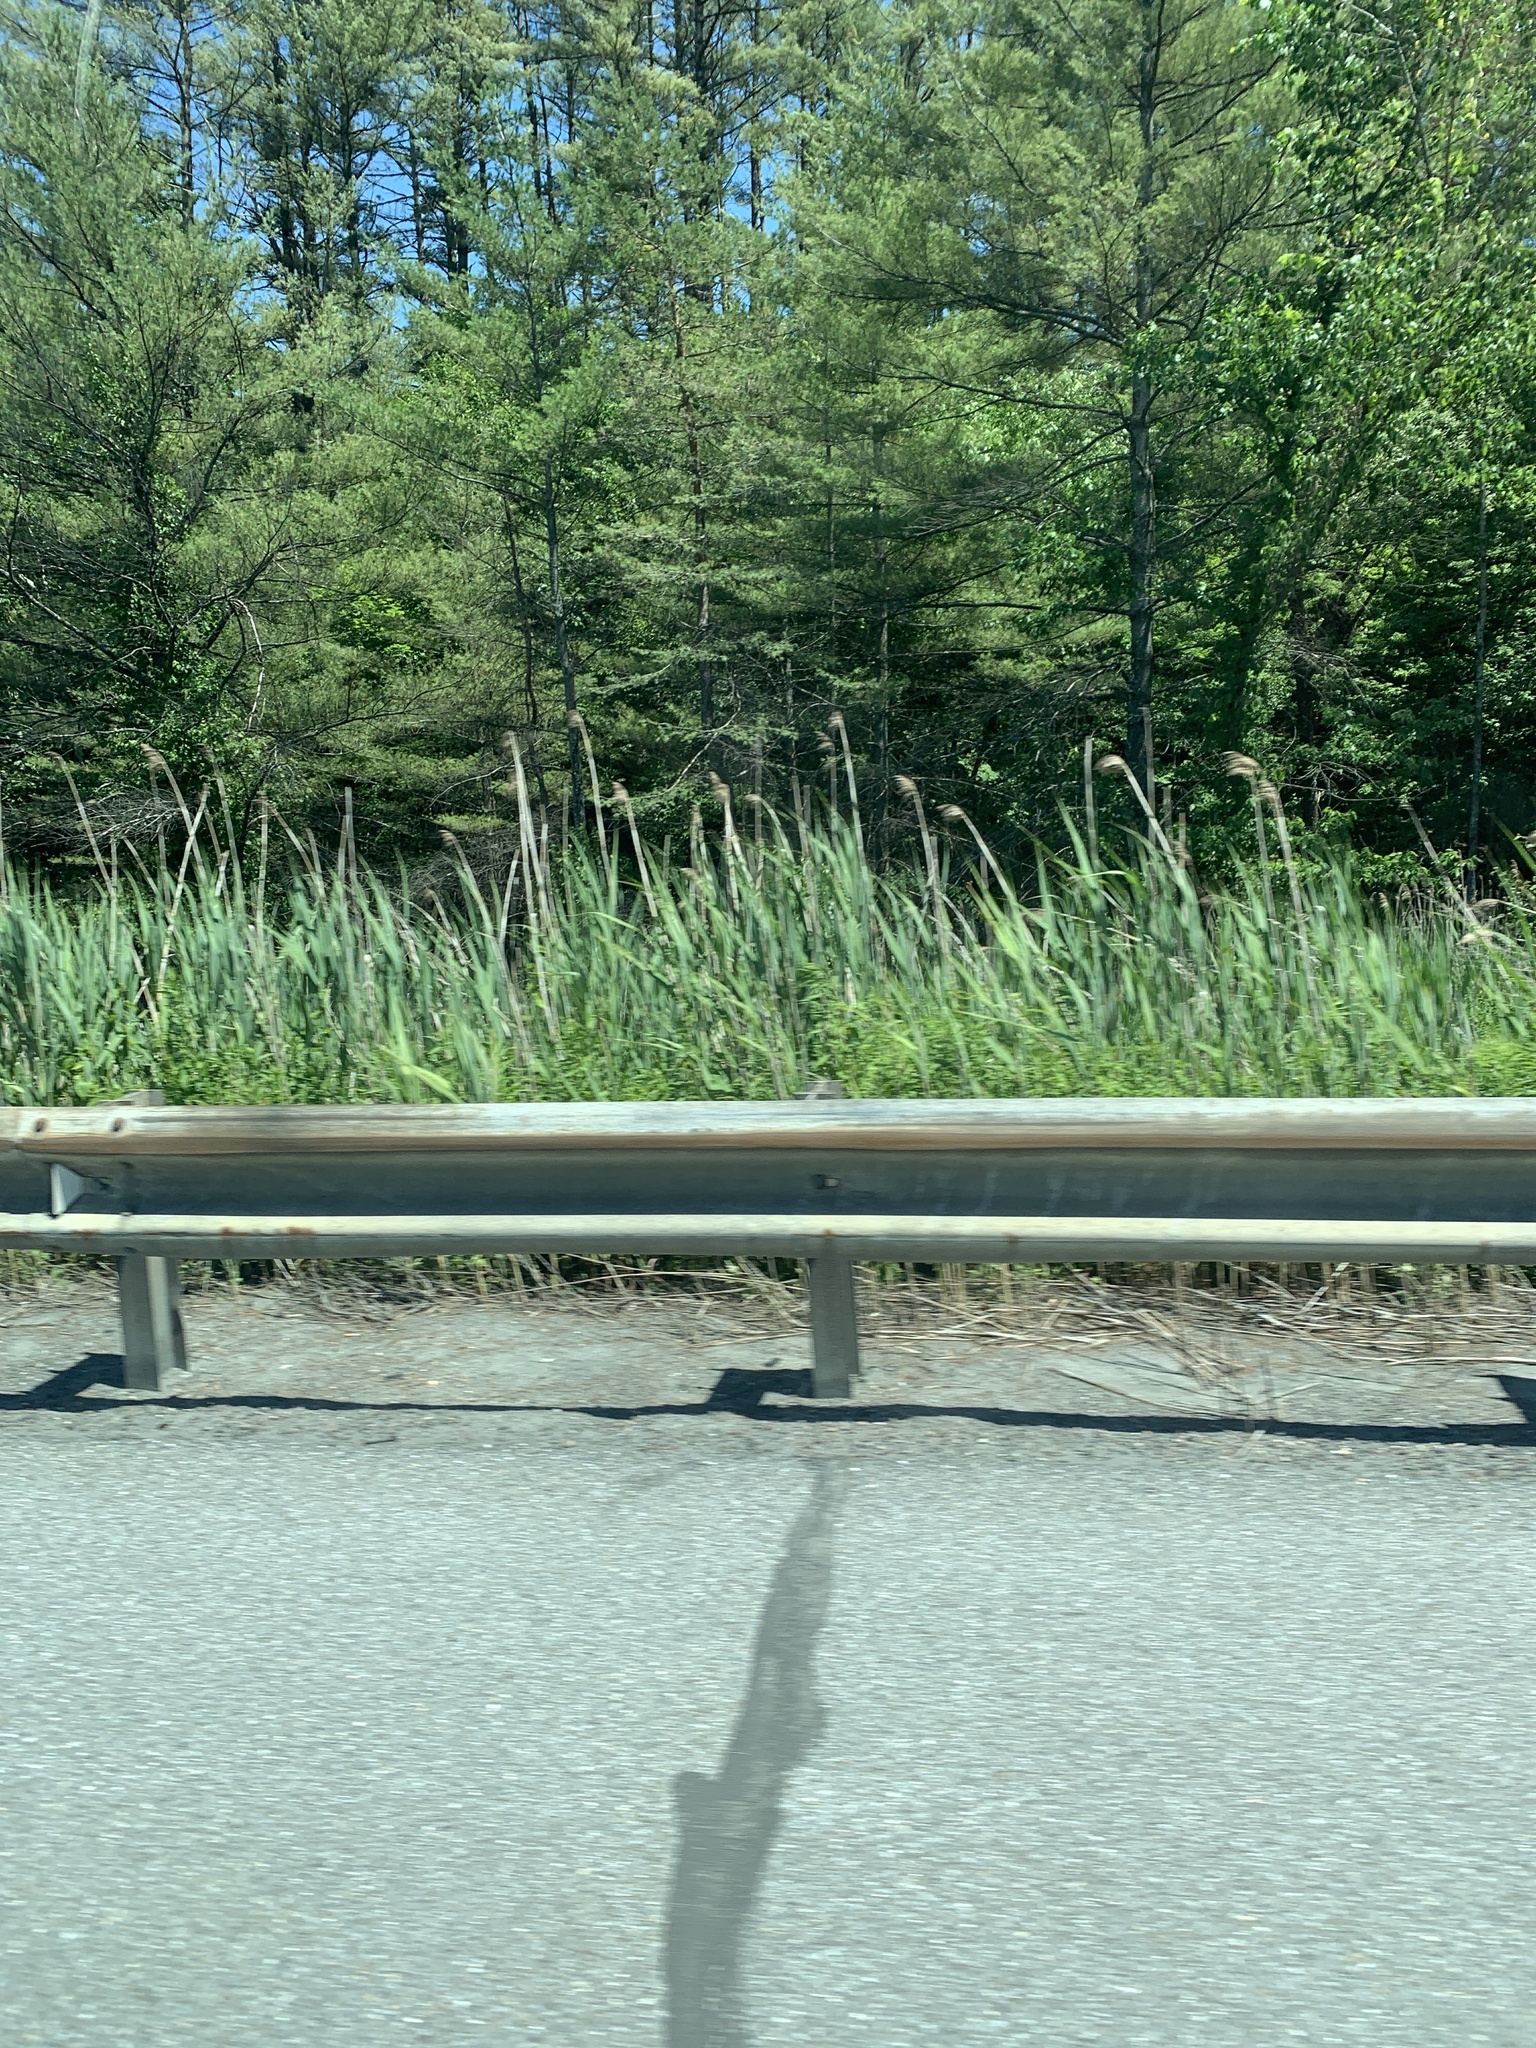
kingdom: Plantae
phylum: Tracheophyta
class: Pinopsida
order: Pinales
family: Pinaceae
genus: Pinus
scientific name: Pinus strobus
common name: Weymouth pine
